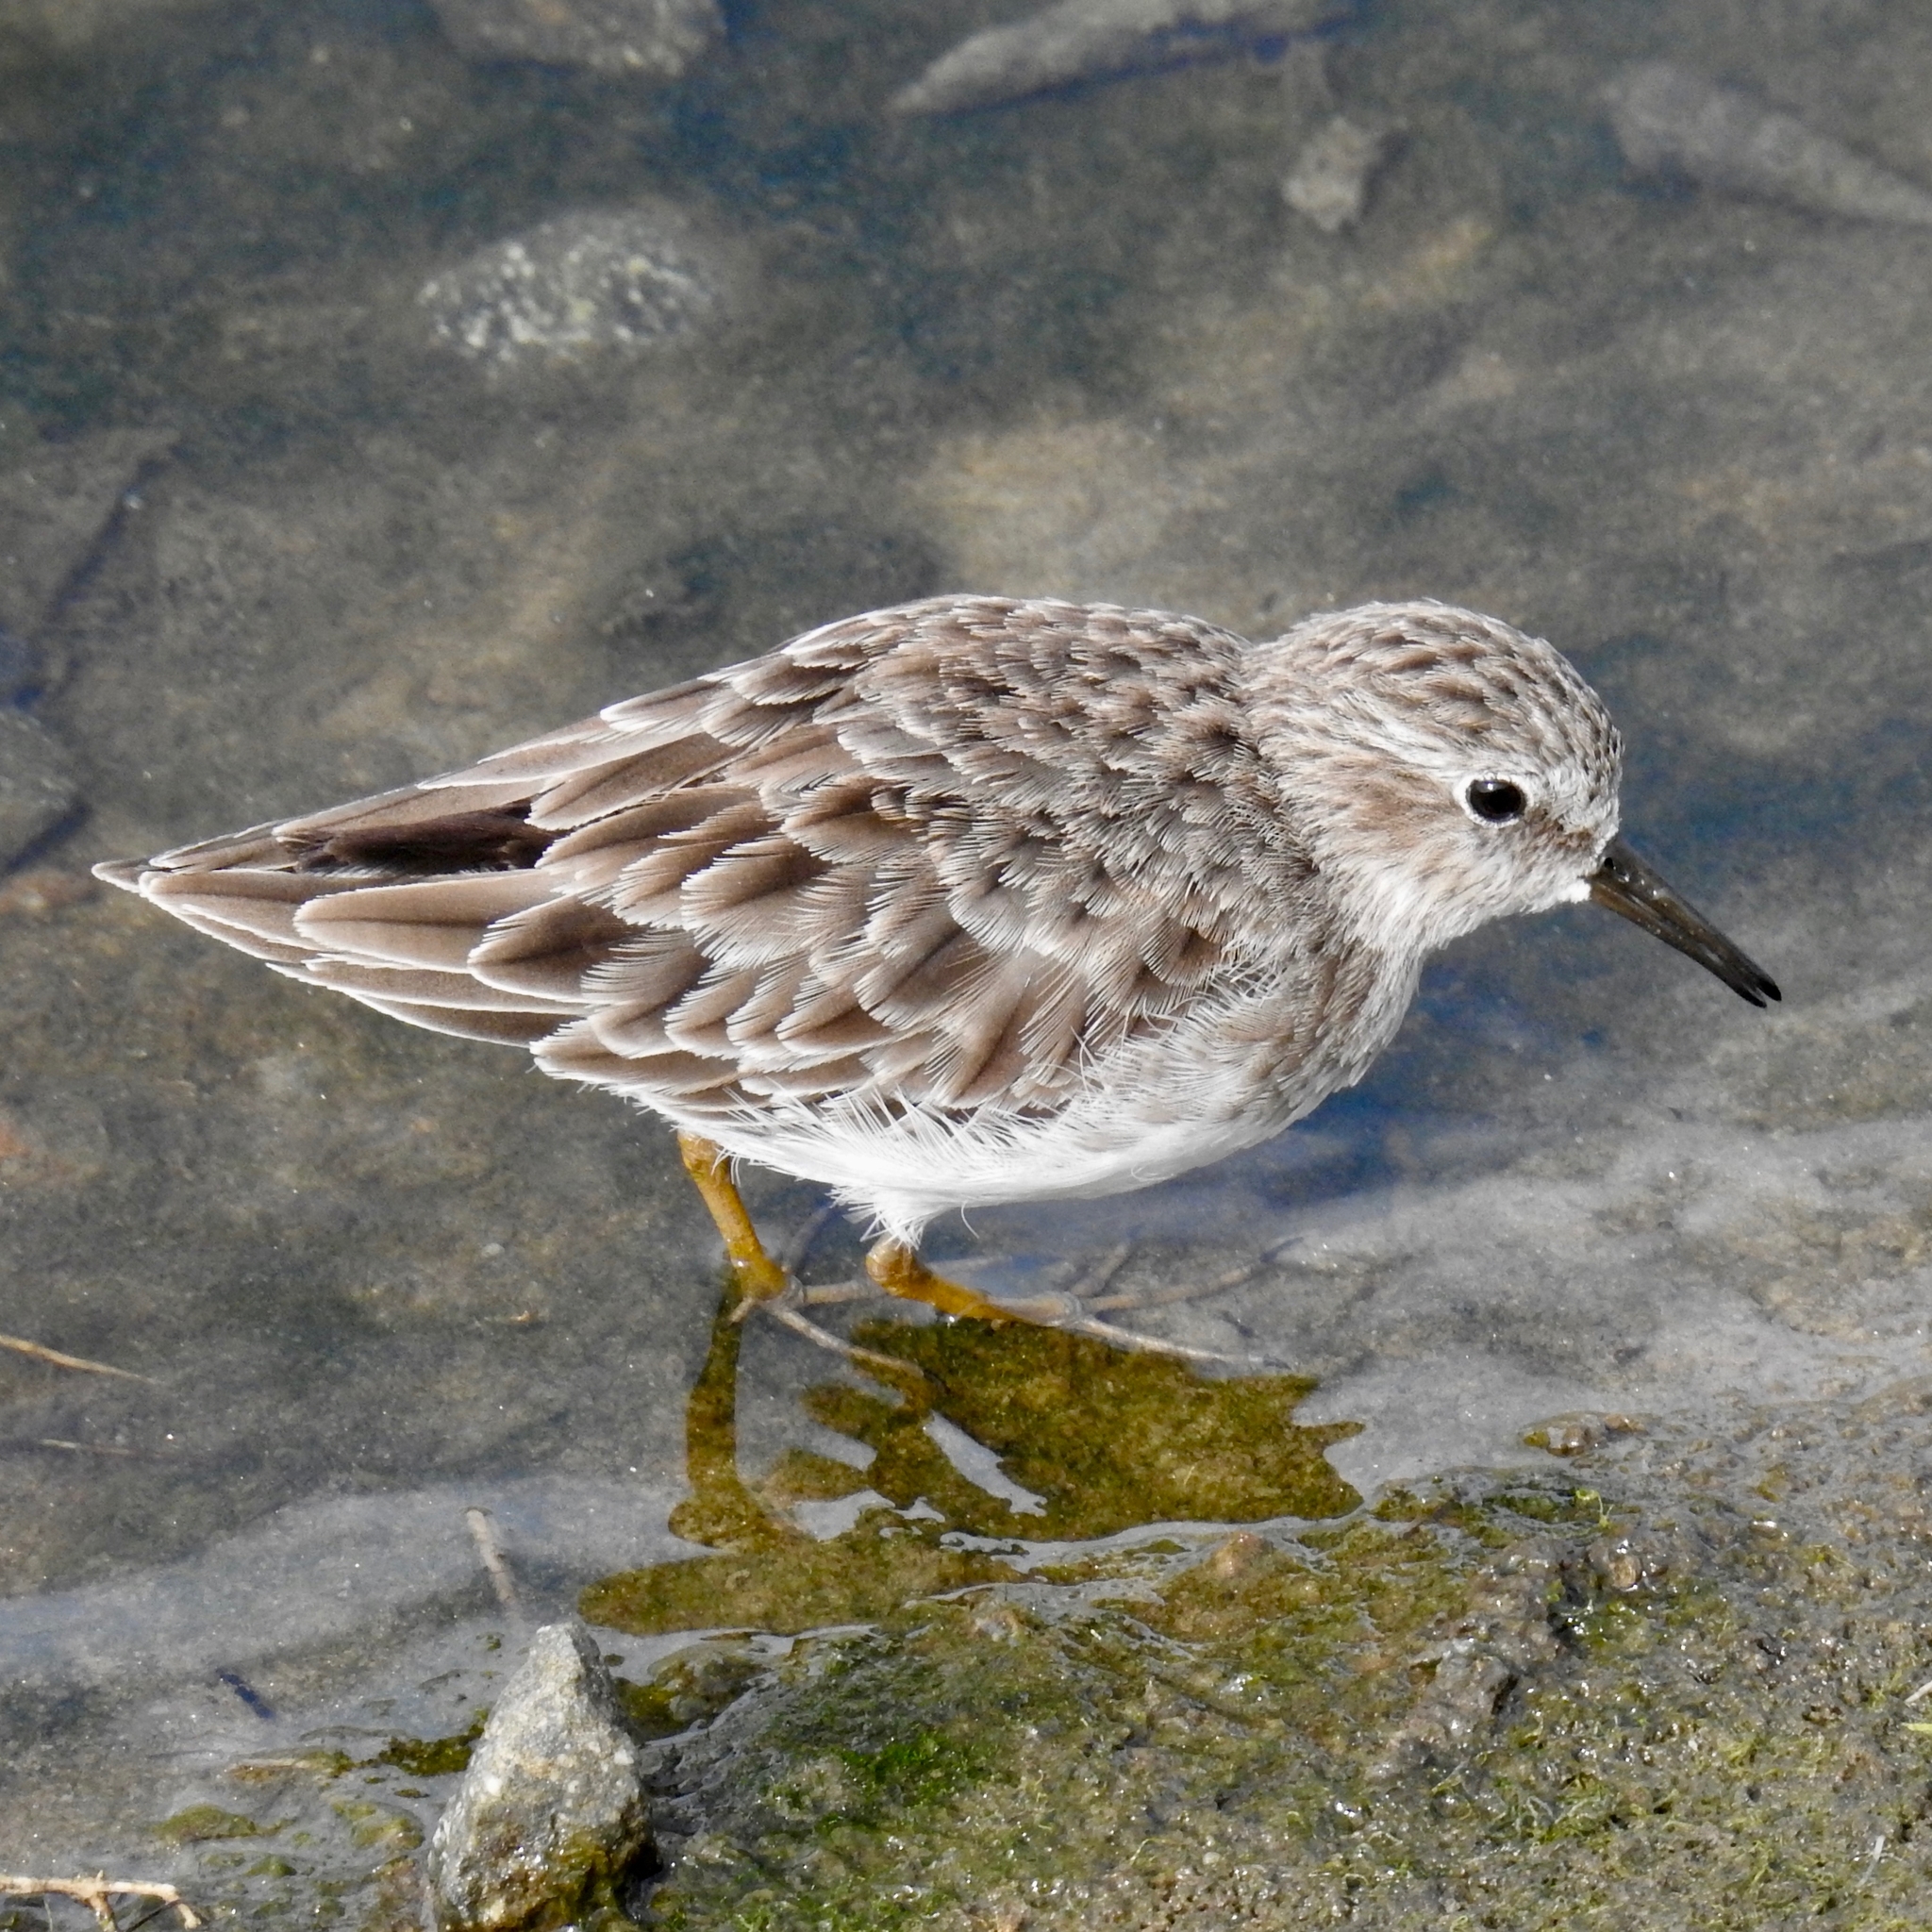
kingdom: Animalia
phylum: Chordata
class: Aves
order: Charadriiformes
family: Scolopacidae
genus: Calidris
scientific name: Calidris minutilla
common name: Least sandpiper
